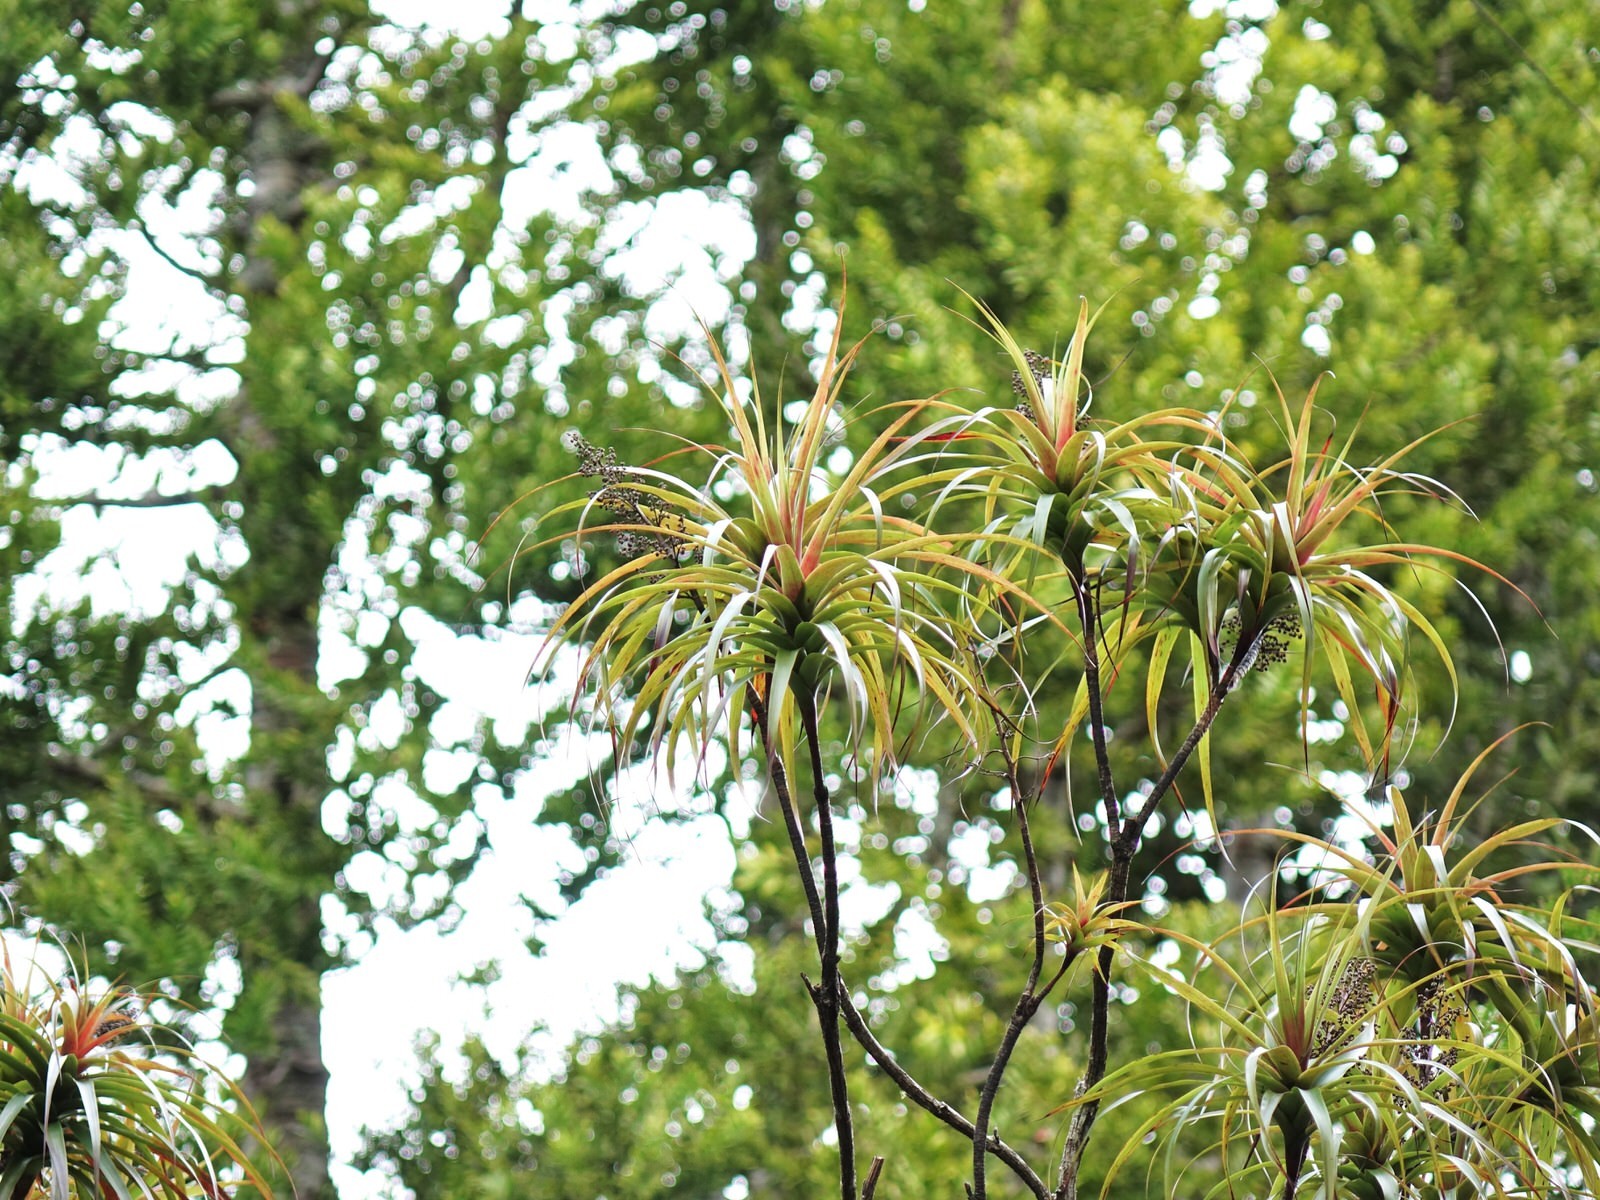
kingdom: Plantae
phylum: Tracheophyta
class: Magnoliopsida
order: Ericales
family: Ericaceae
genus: Dracophyllum
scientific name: Dracophyllum latifolium
